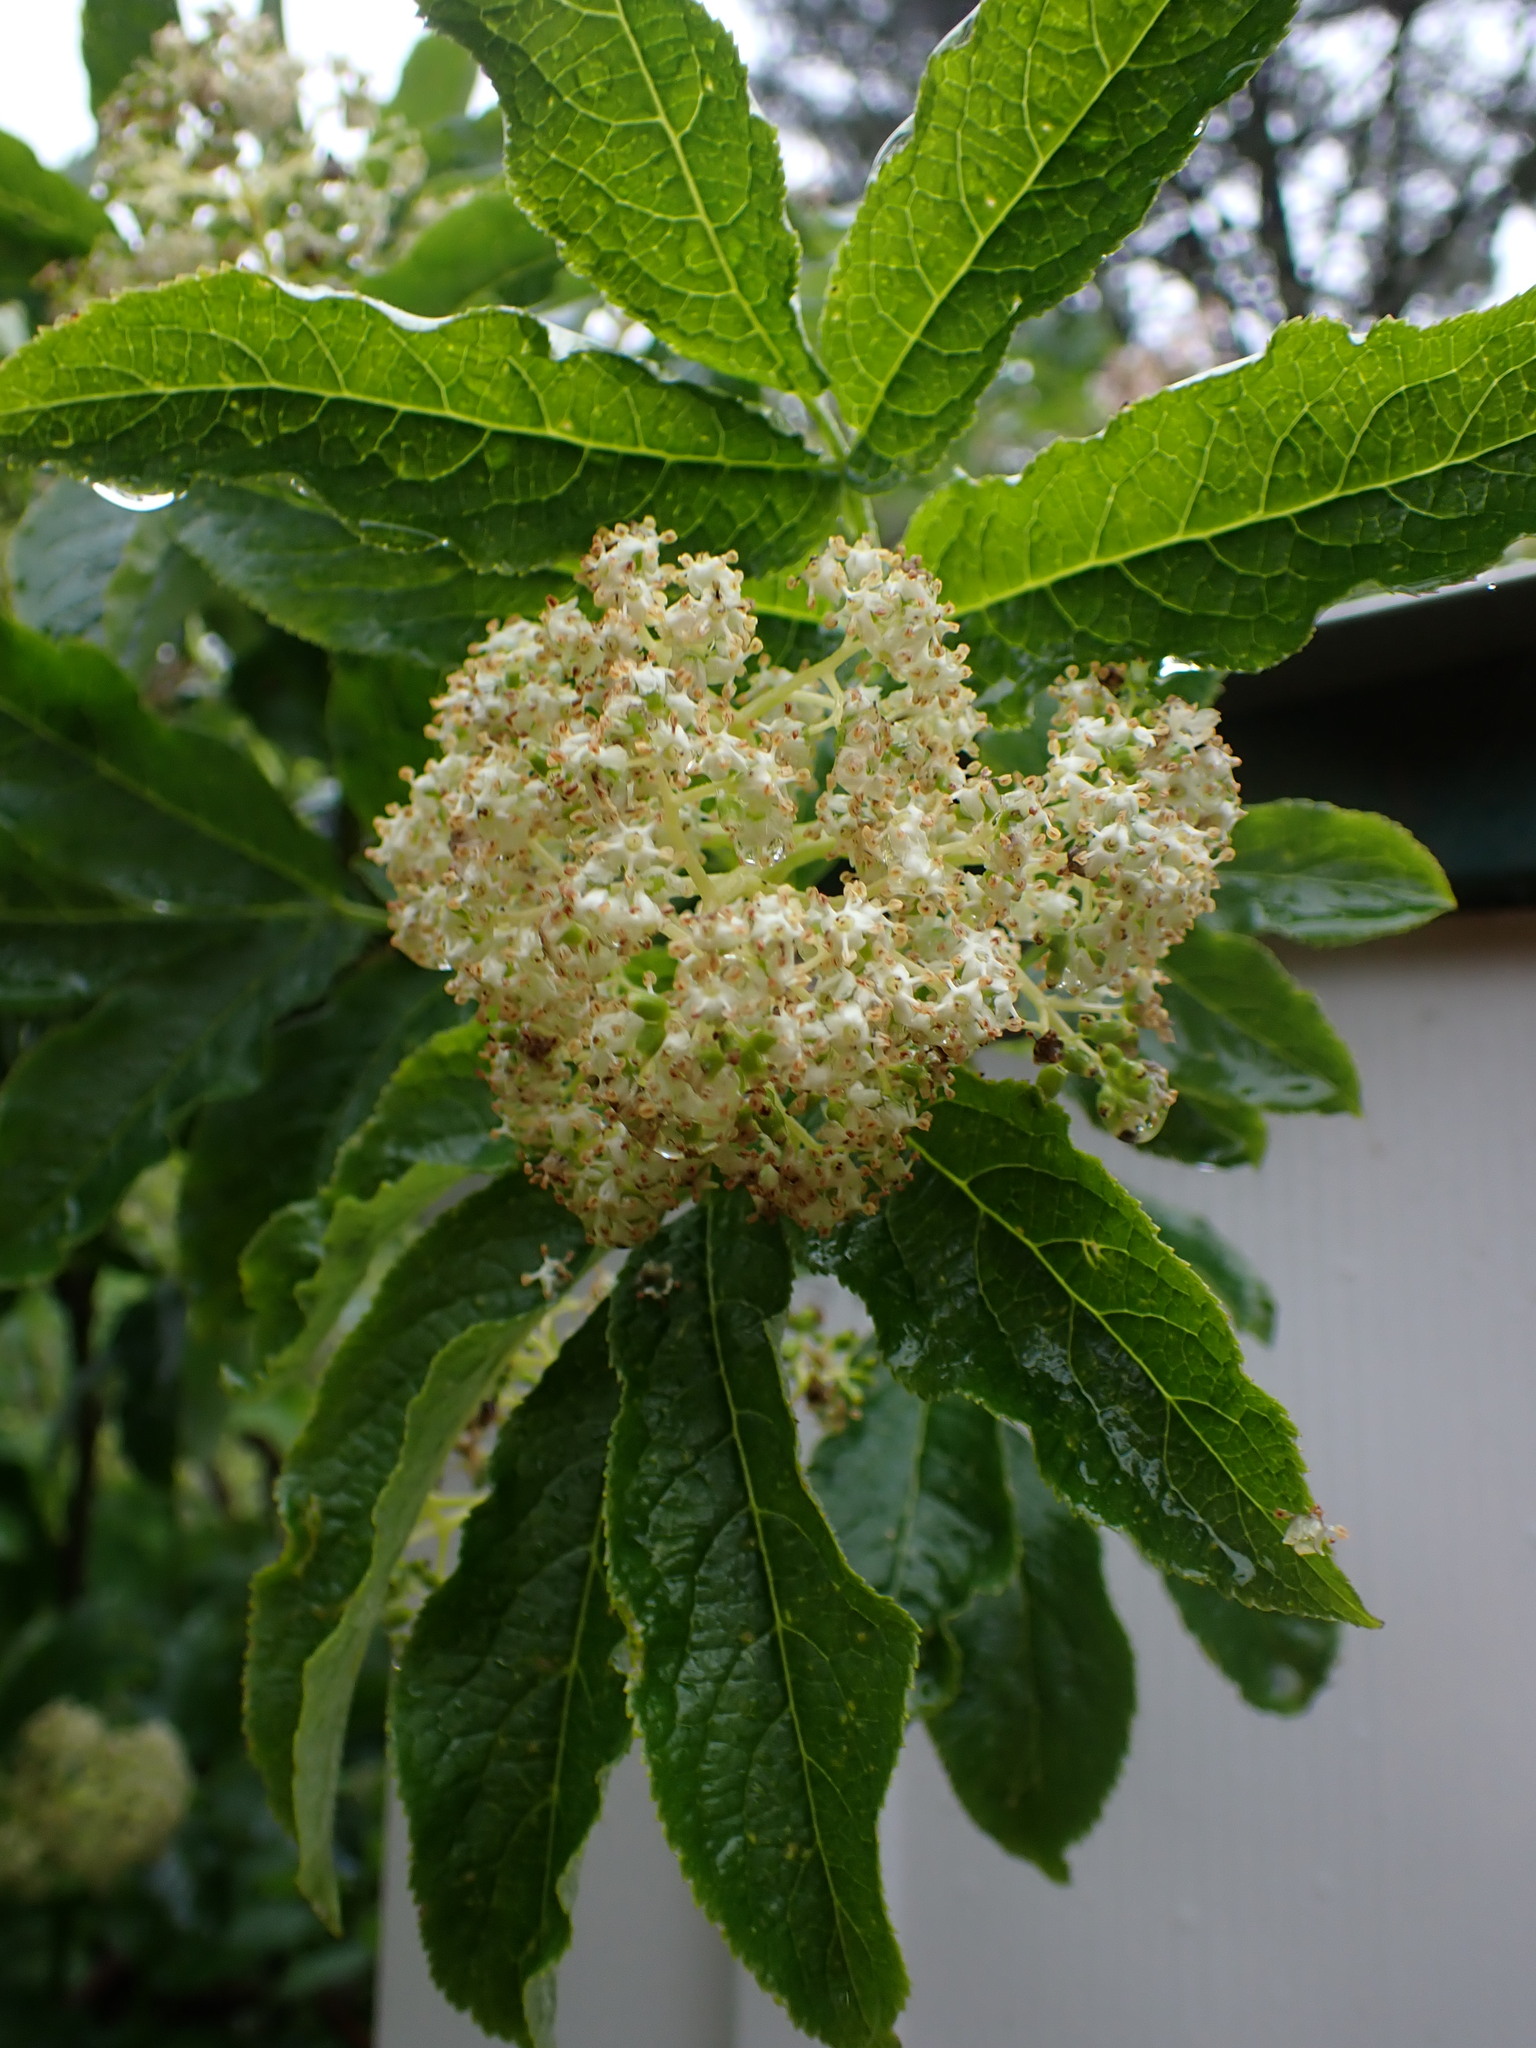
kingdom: Plantae
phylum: Tracheophyta
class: Magnoliopsida
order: Dipsacales
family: Viburnaceae
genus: Sambucus
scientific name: Sambucus racemosa
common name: Red-berried elder
